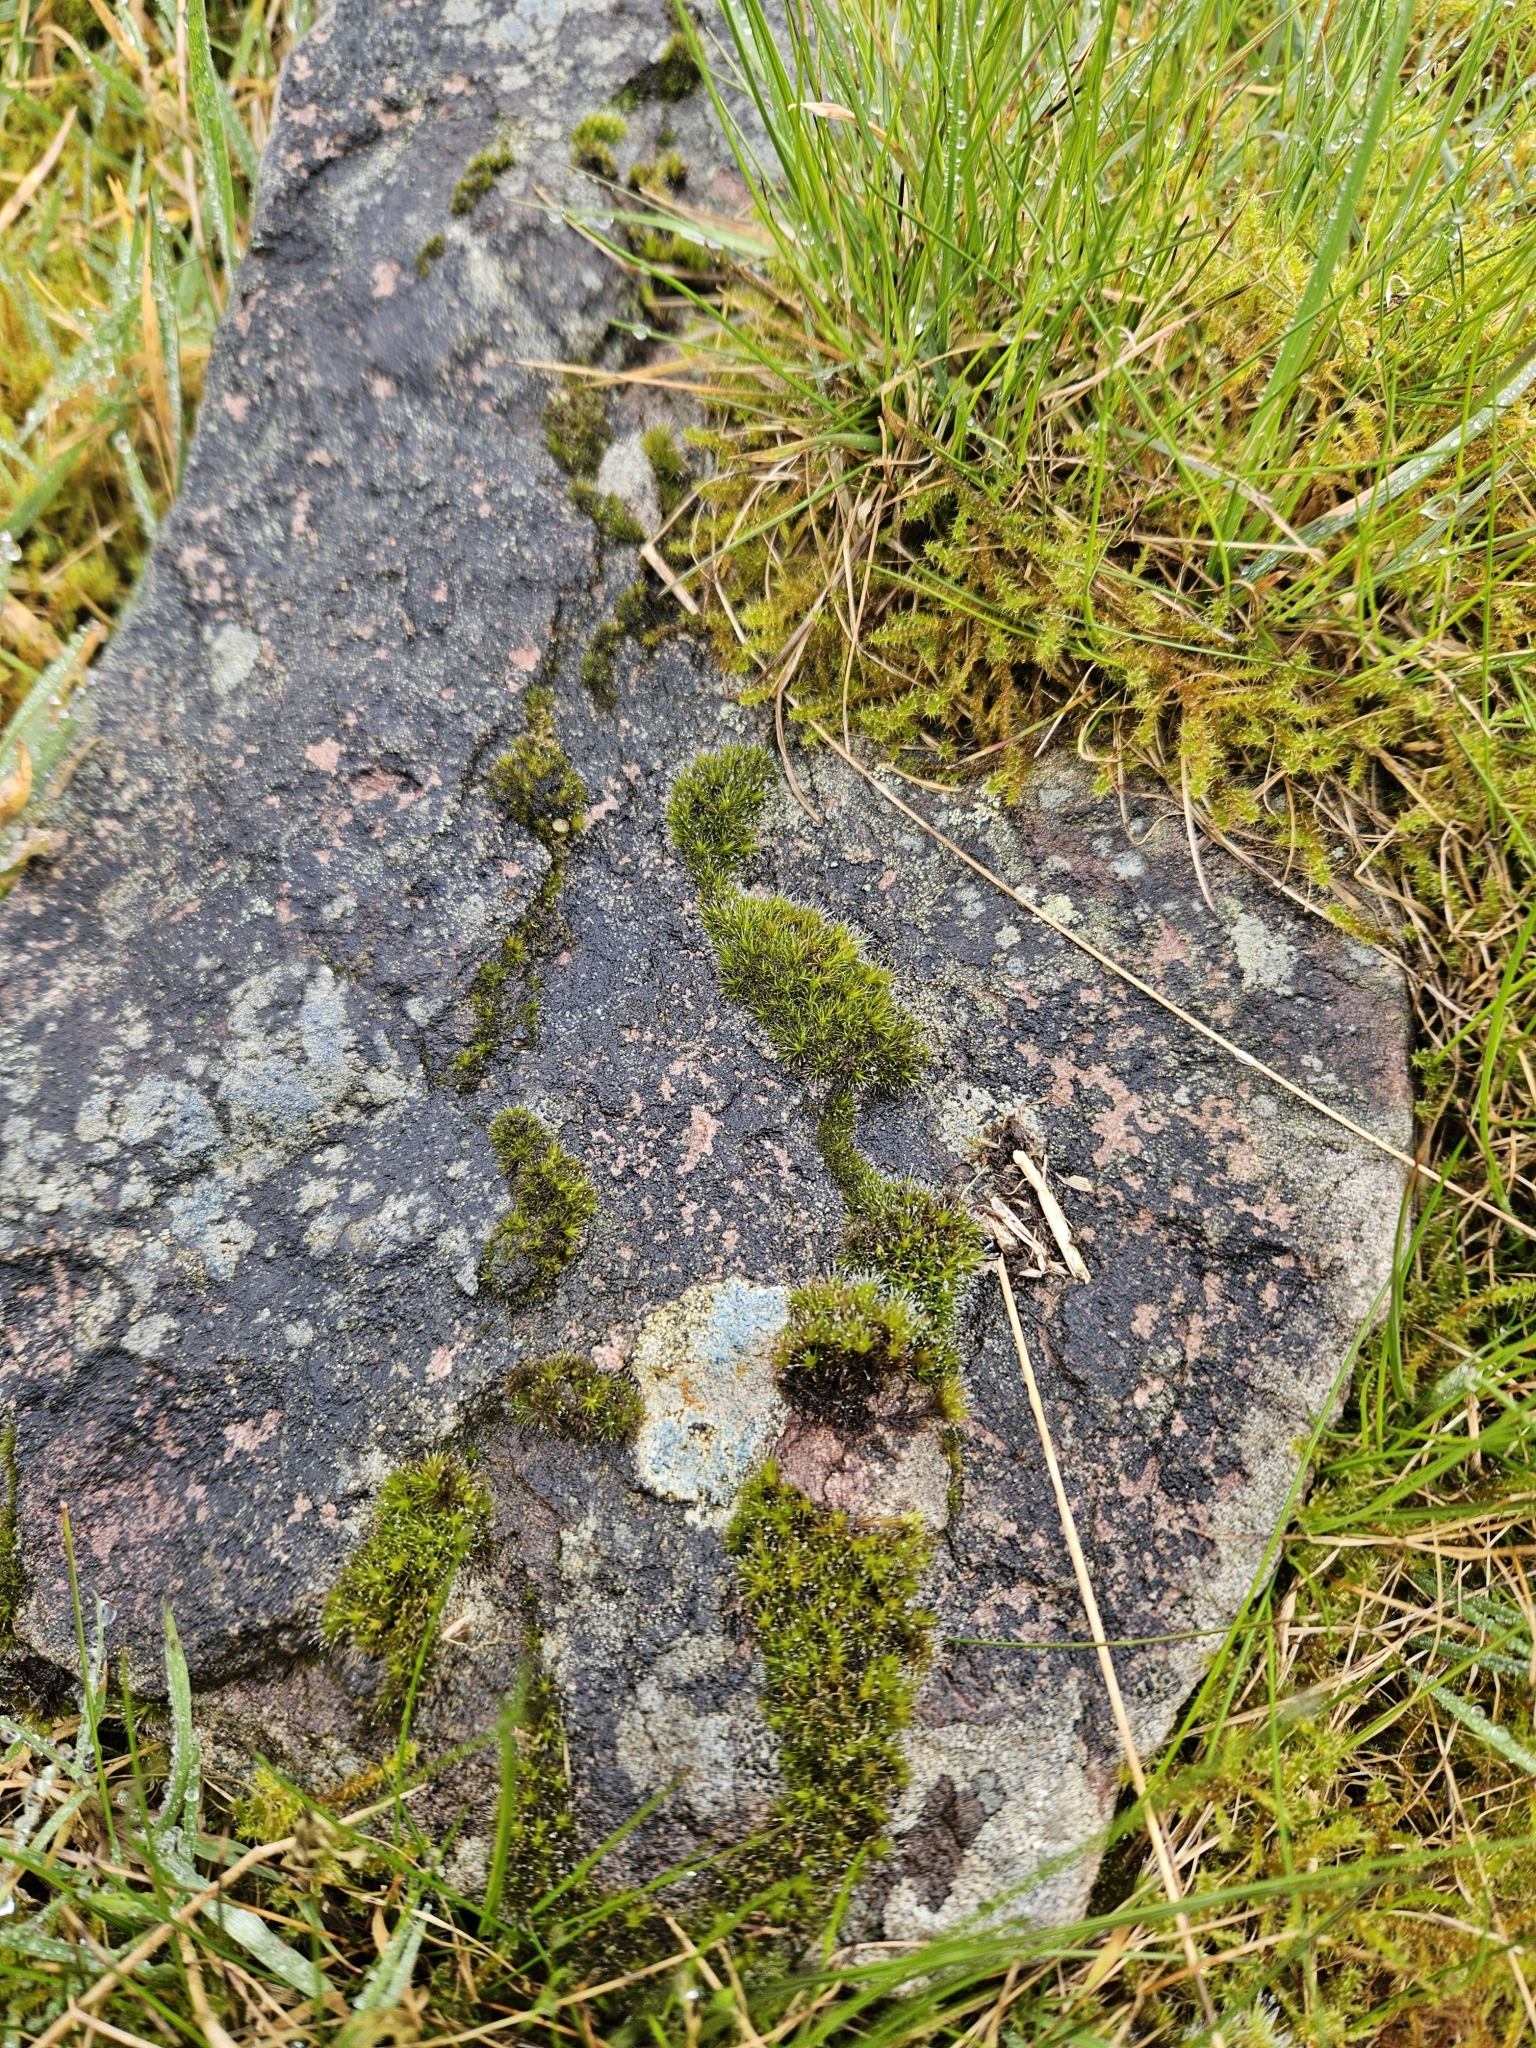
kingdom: Plantae
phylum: Bryophyta
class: Bryopsida
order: Dicranales
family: Leucobryaceae
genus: Campylopus
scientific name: Campylopus introflexus
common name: Heath star moss
